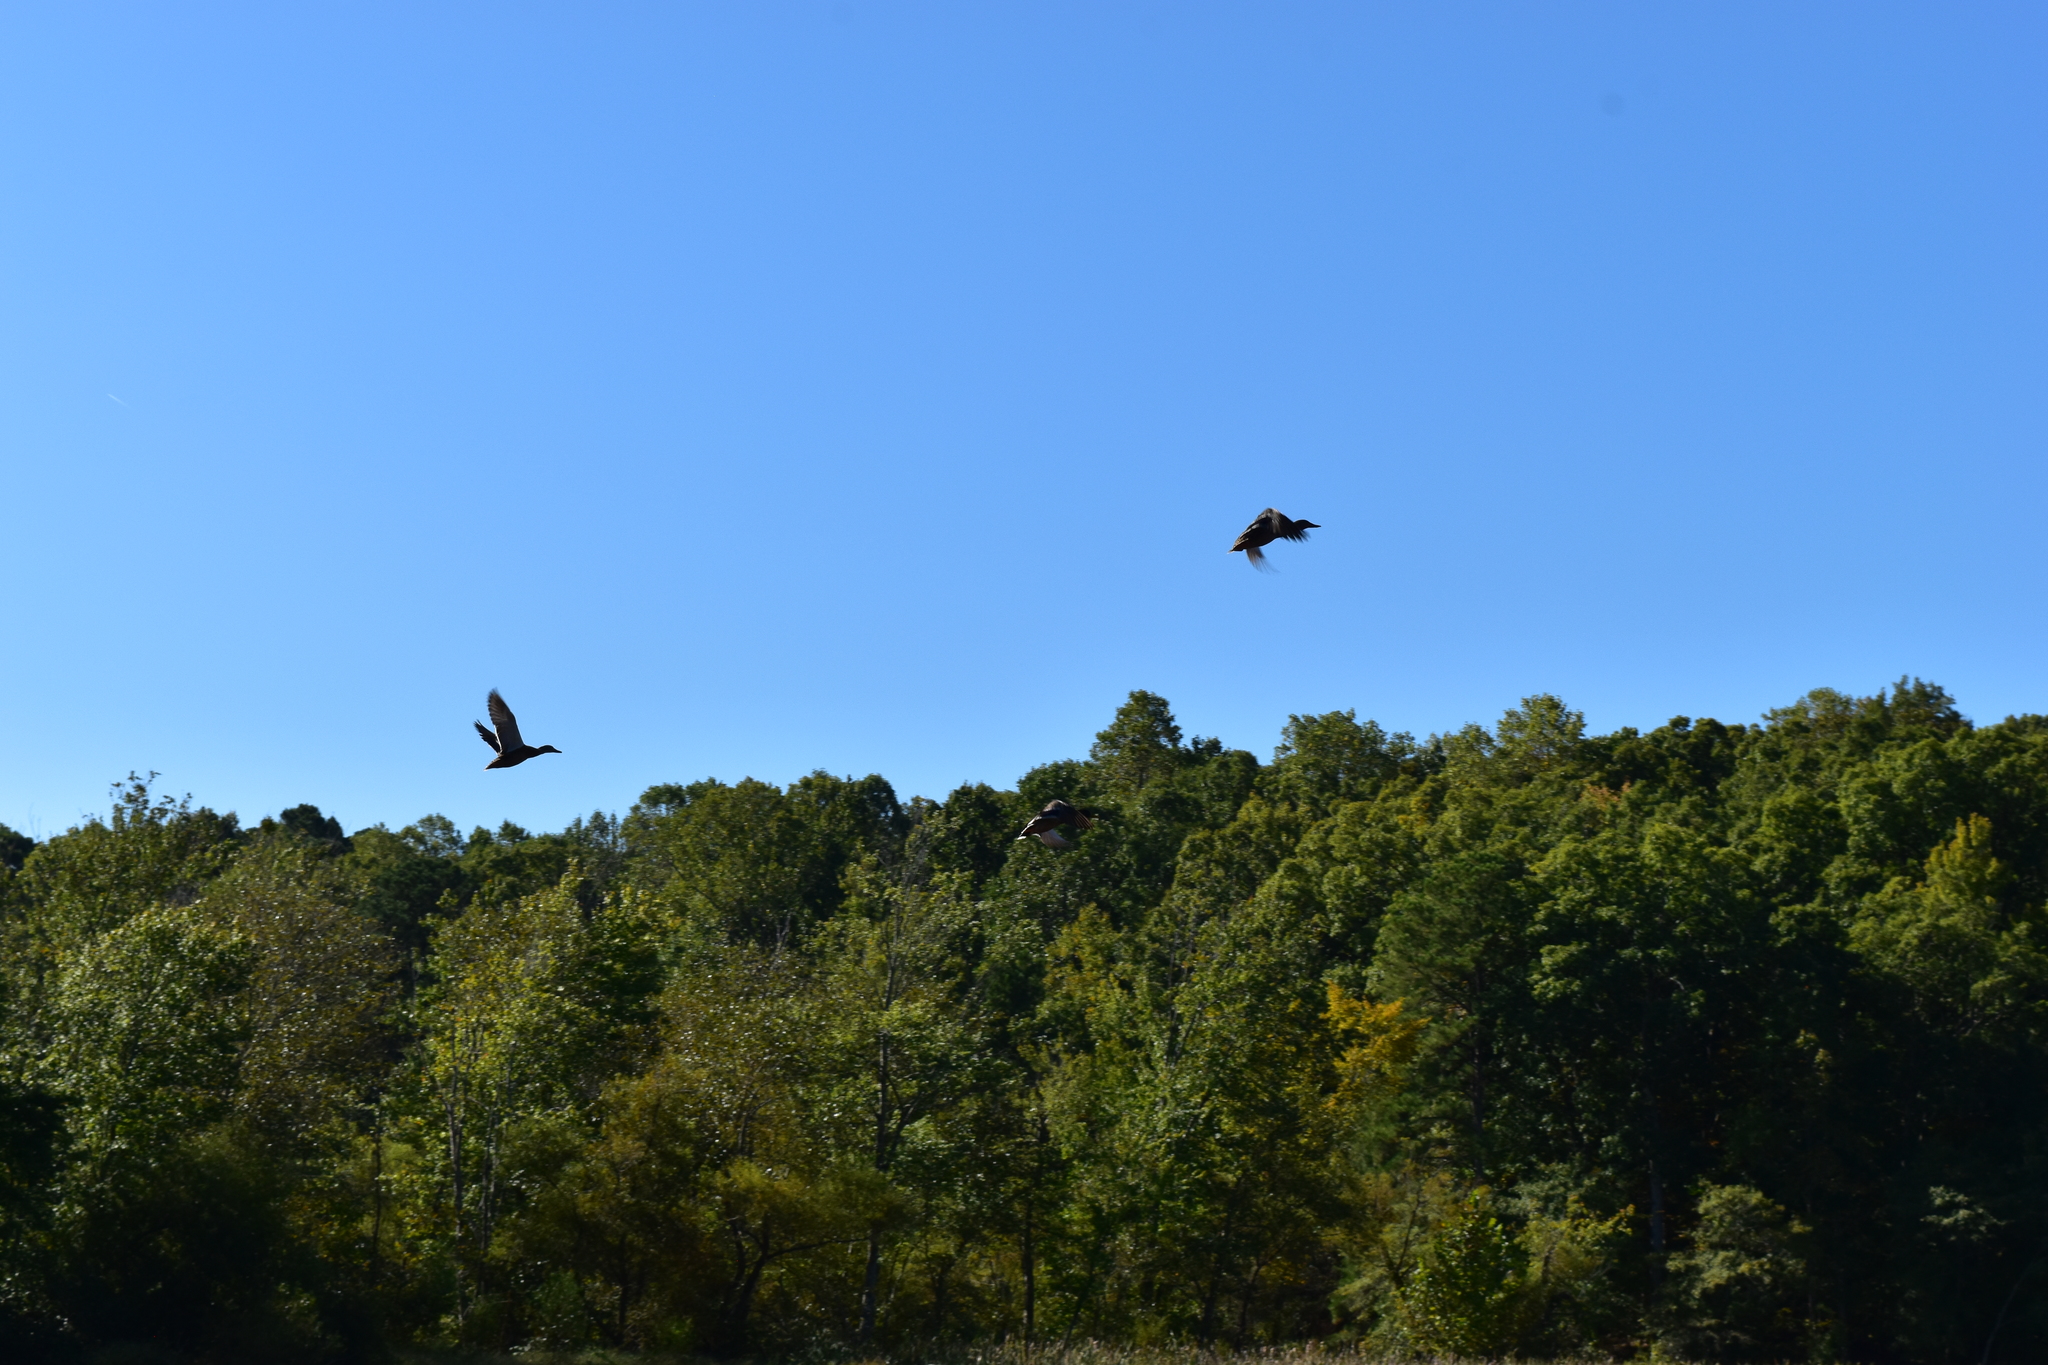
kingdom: Animalia
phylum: Chordata
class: Aves
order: Anseriformes
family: Anatidae
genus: Anas
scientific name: Anas platyrhynchos
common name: Mallard
